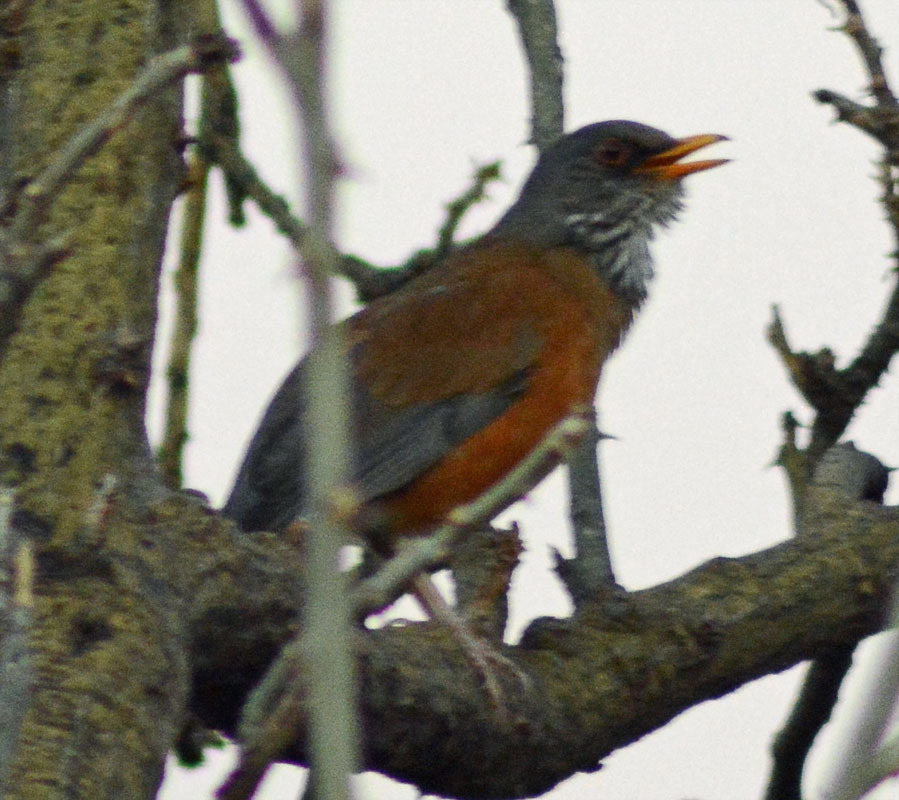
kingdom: Animalia
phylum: Chordata
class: Aves
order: Passeriformes
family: Turdidae
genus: Turdus
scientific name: Turdus rufopalliatus
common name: Rufous-backed robin
